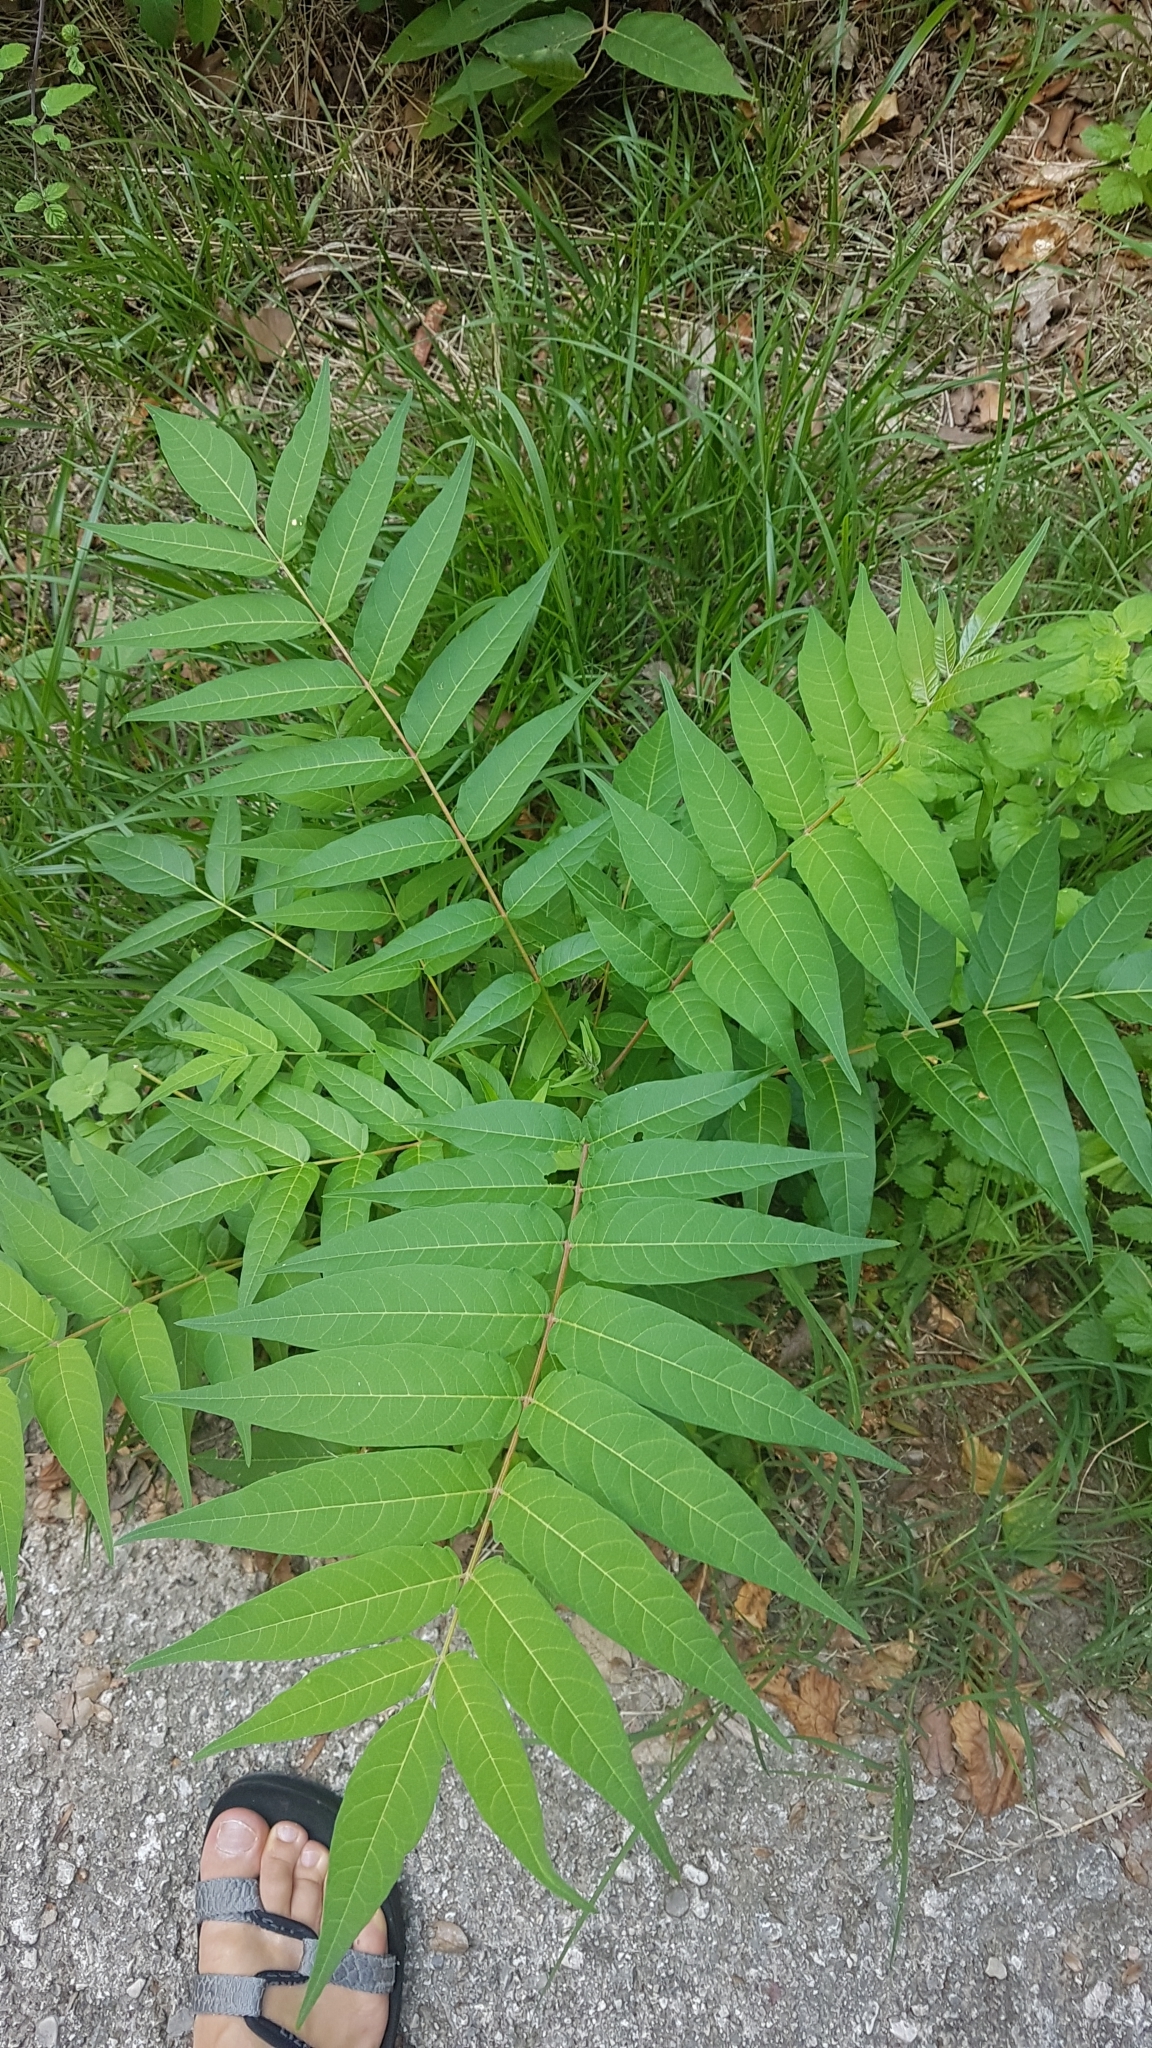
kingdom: Plantae
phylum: Tracheophyta
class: Magnoliopsida
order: Sapindales
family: Simaroubaceae
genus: Ailanthus
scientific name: Ailanthus altissima
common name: Tree-of-heaven
